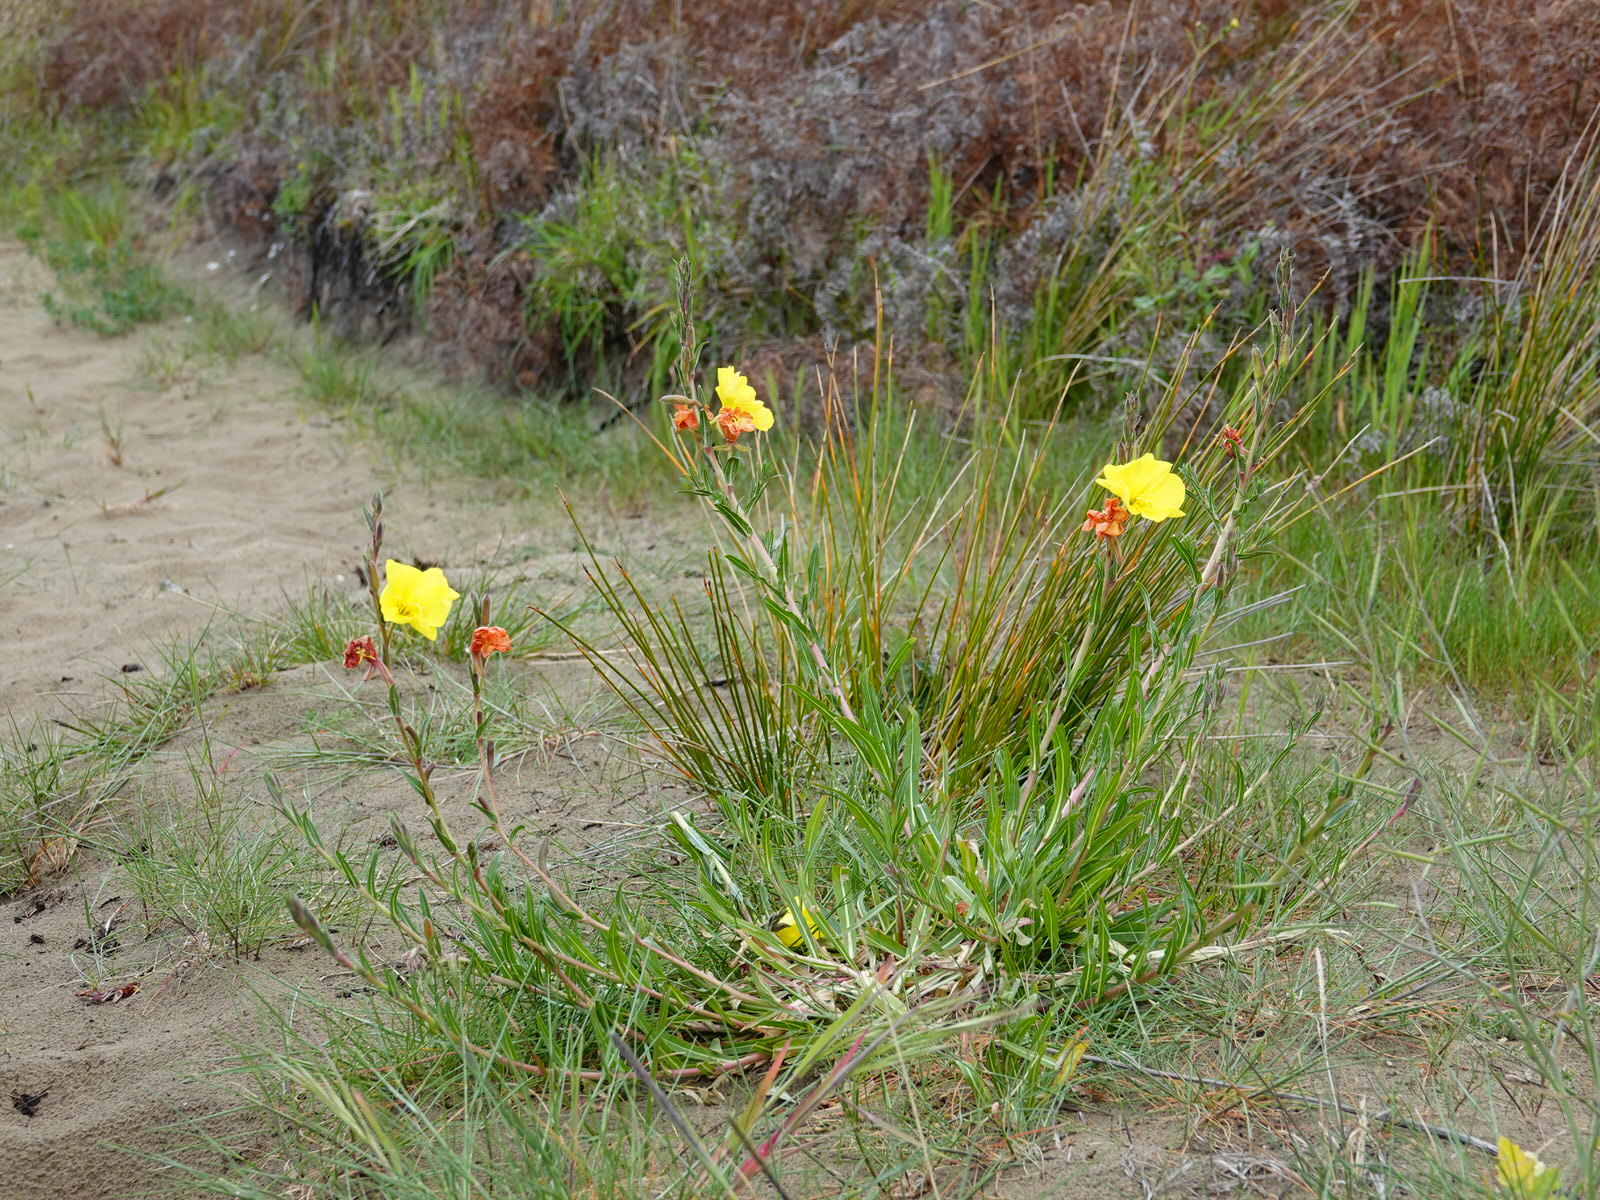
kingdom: Plantae
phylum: Tracheophyta
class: Magnoliopsida
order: Myrtales
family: Onagraceae
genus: Oenothera
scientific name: Oenothera stricta
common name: Fragrant evening-primrose
